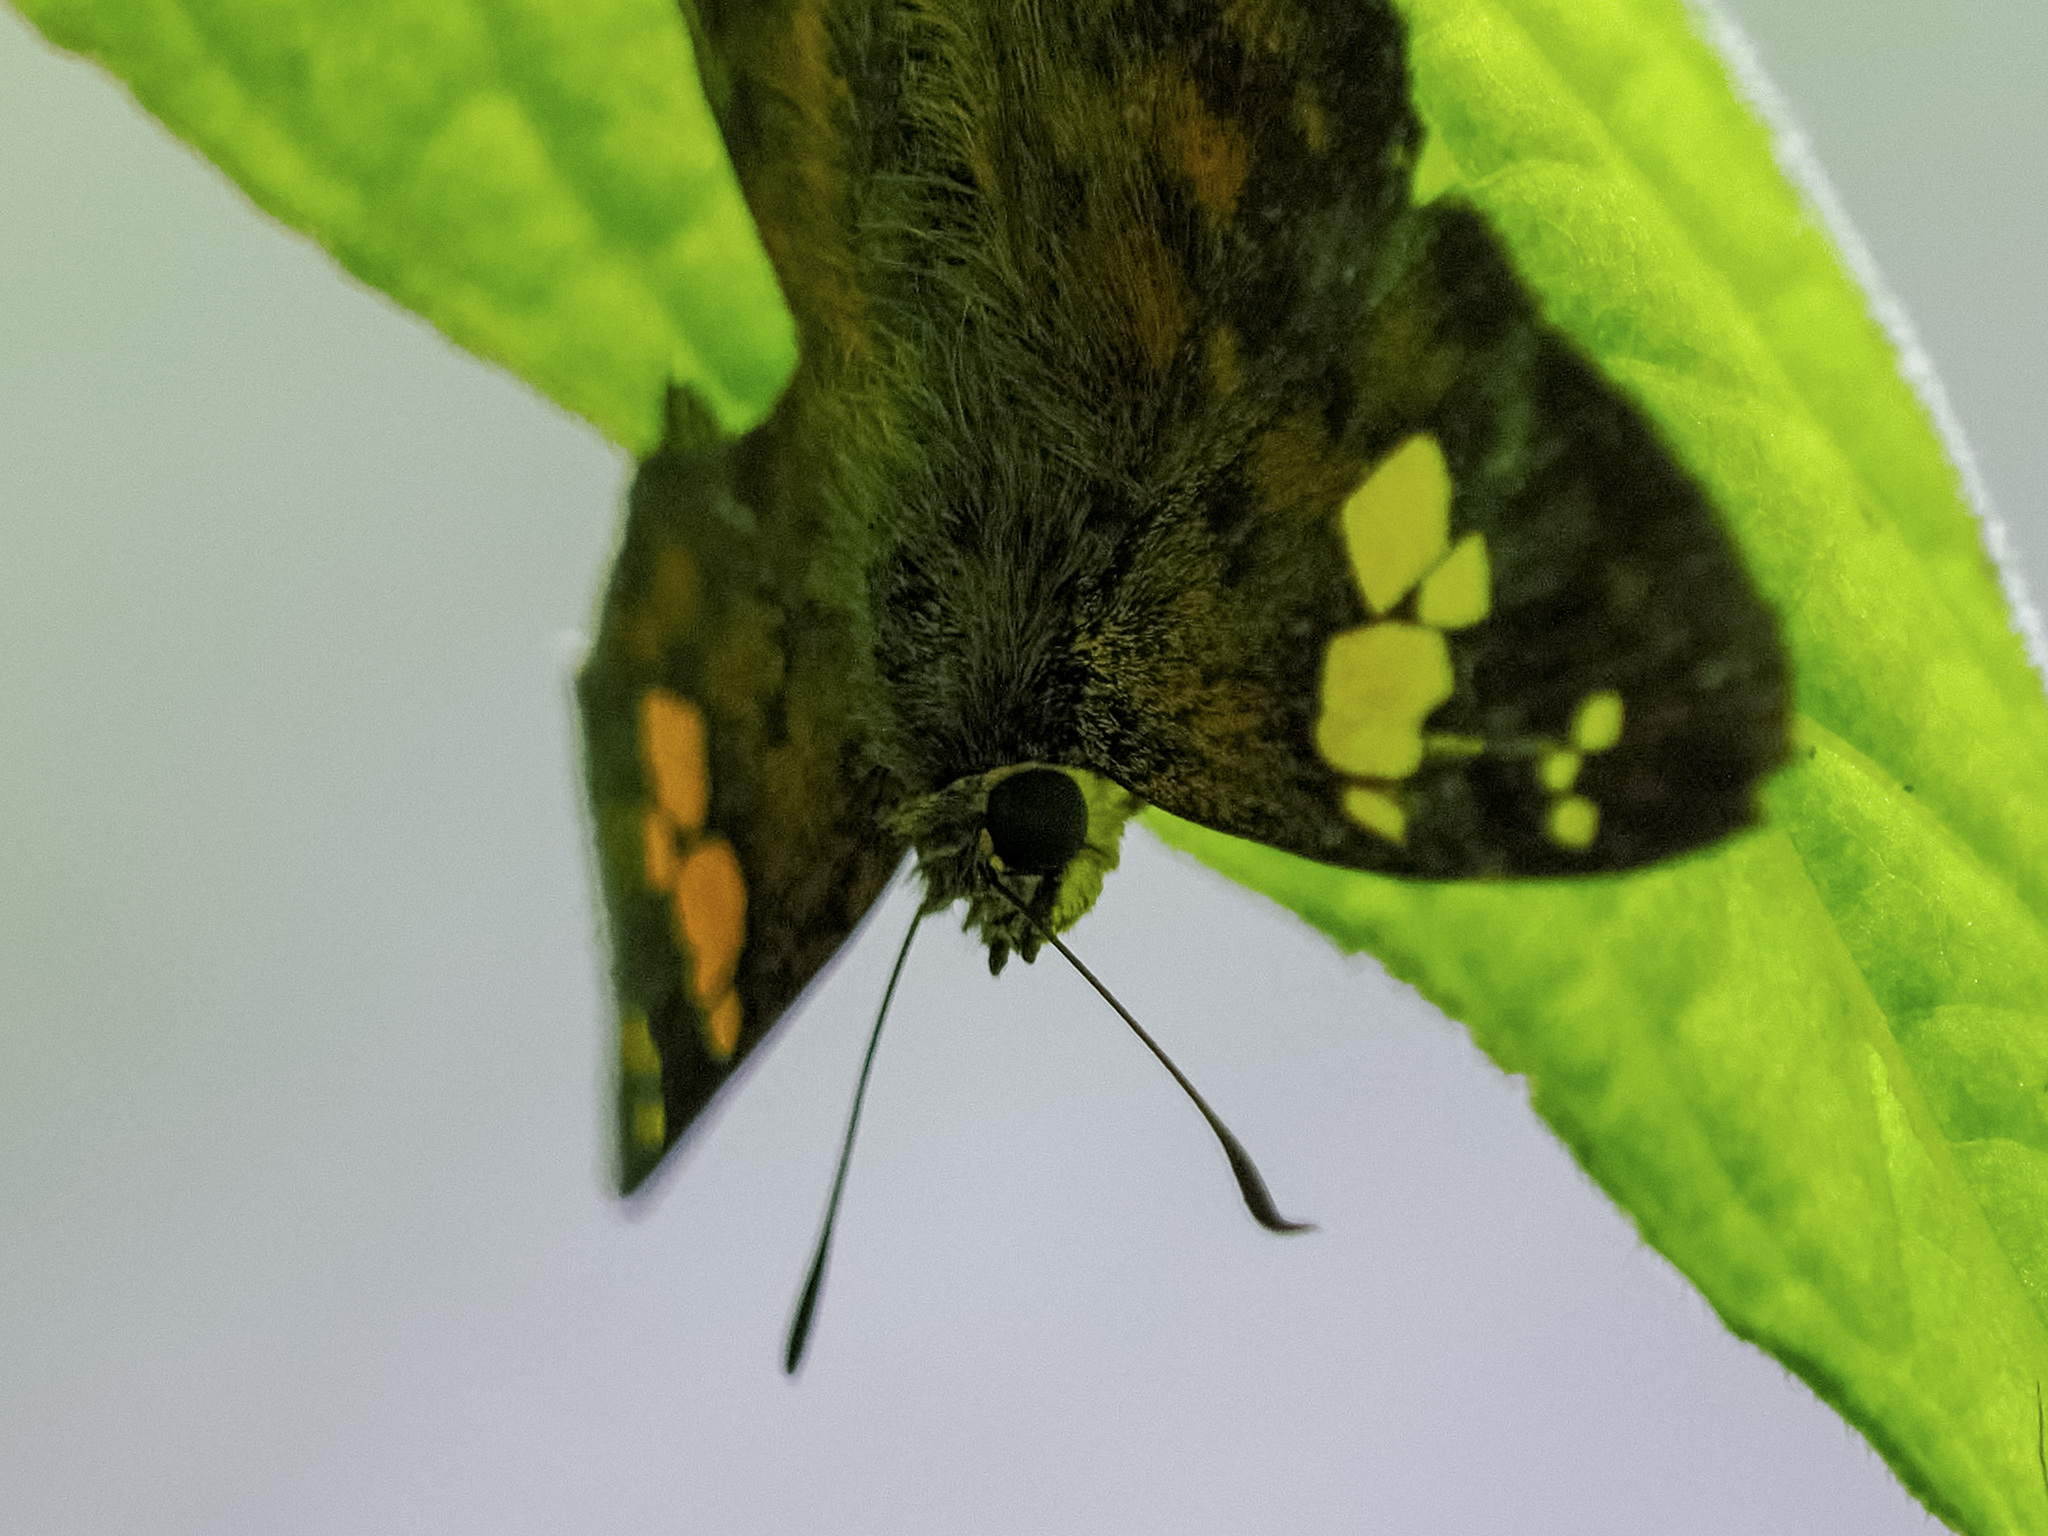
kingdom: Animalia
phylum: Arthropoda
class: Insecta
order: Lepidoptera
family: Hesperiidae
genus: Pseudocoladenia
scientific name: Pseudocoladenia dan
